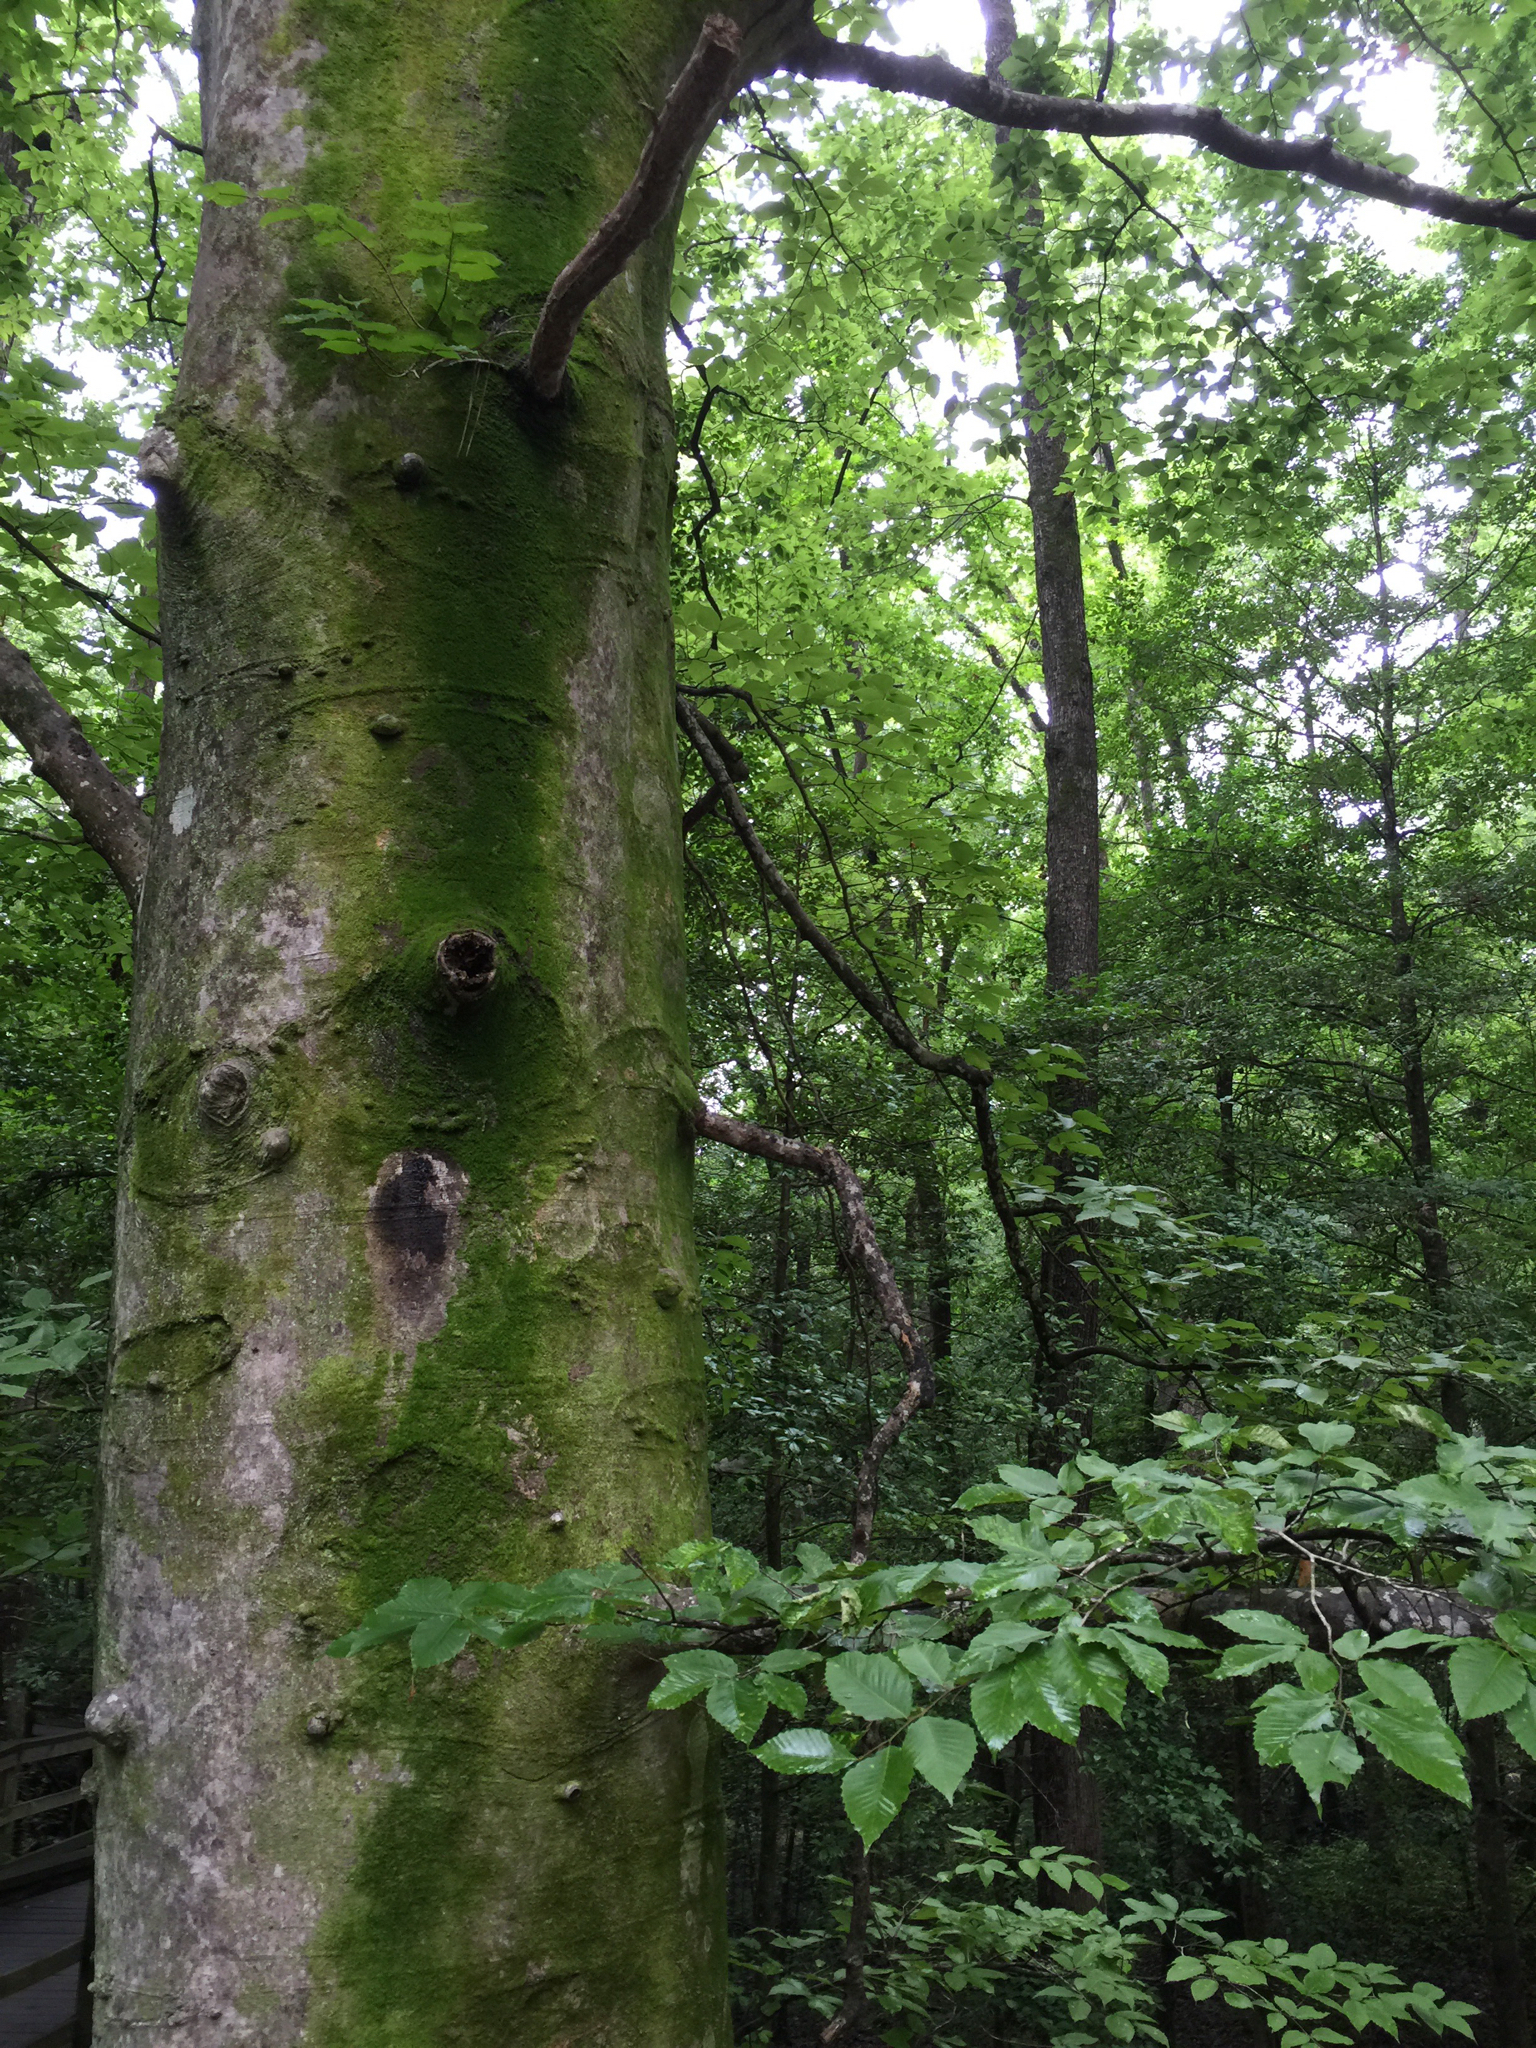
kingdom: Plantae
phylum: Tracheophyta
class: Magnoliopsida
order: Fagales
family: Fagaceae
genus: Fagus
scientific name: Fagus grandifolia
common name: American beech
